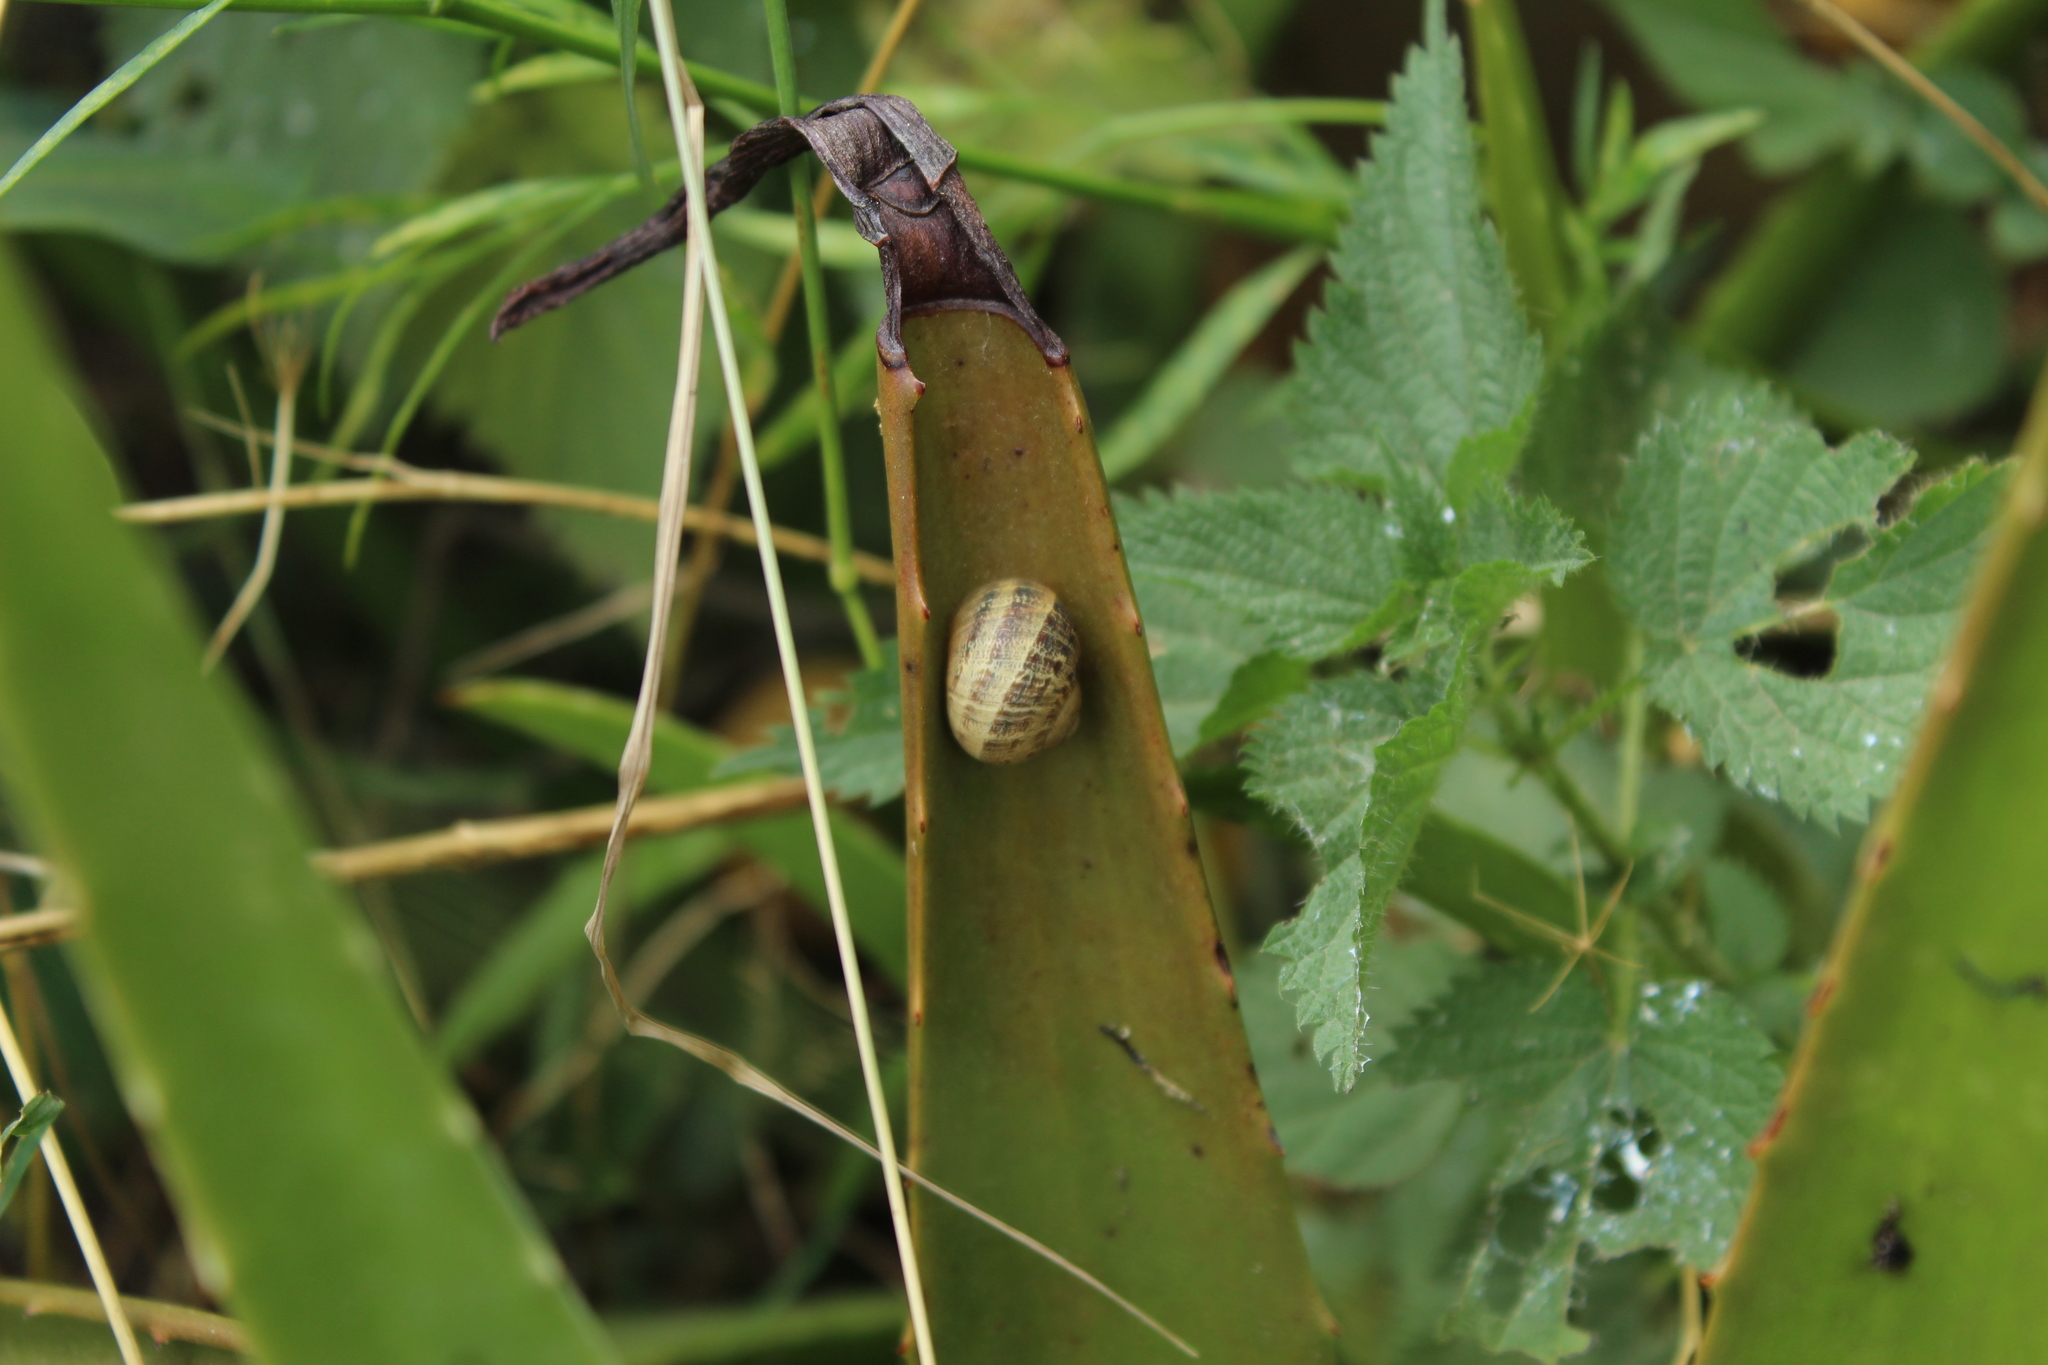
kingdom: Animalia
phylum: Mollusca
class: Gastropoda
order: Stylommatophora
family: Helicidae
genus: Cornu
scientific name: Cornu aspersum
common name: Brown garden snail
